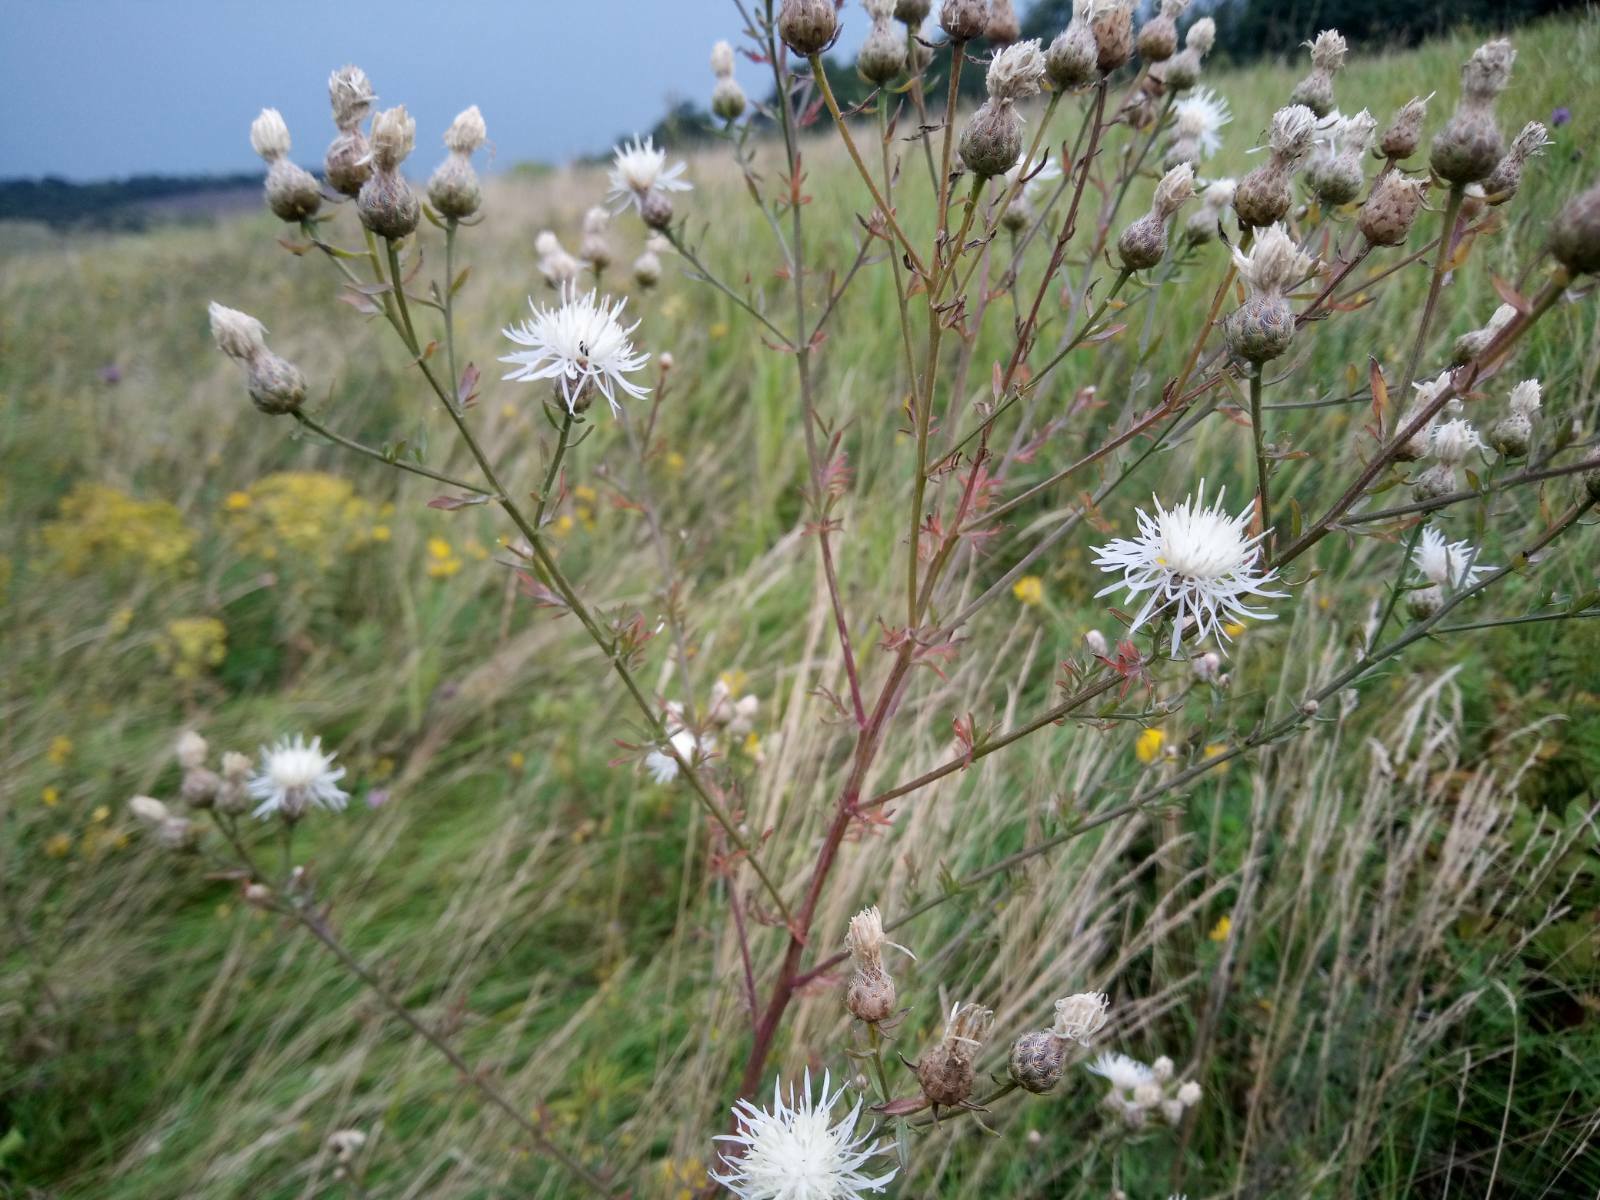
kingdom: Plantae
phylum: Tracheophyta
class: Magnoliopsida
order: Asterales
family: Asteraceae
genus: Centaurea
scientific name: Centaurea stoebe
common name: Spotted knapweed
